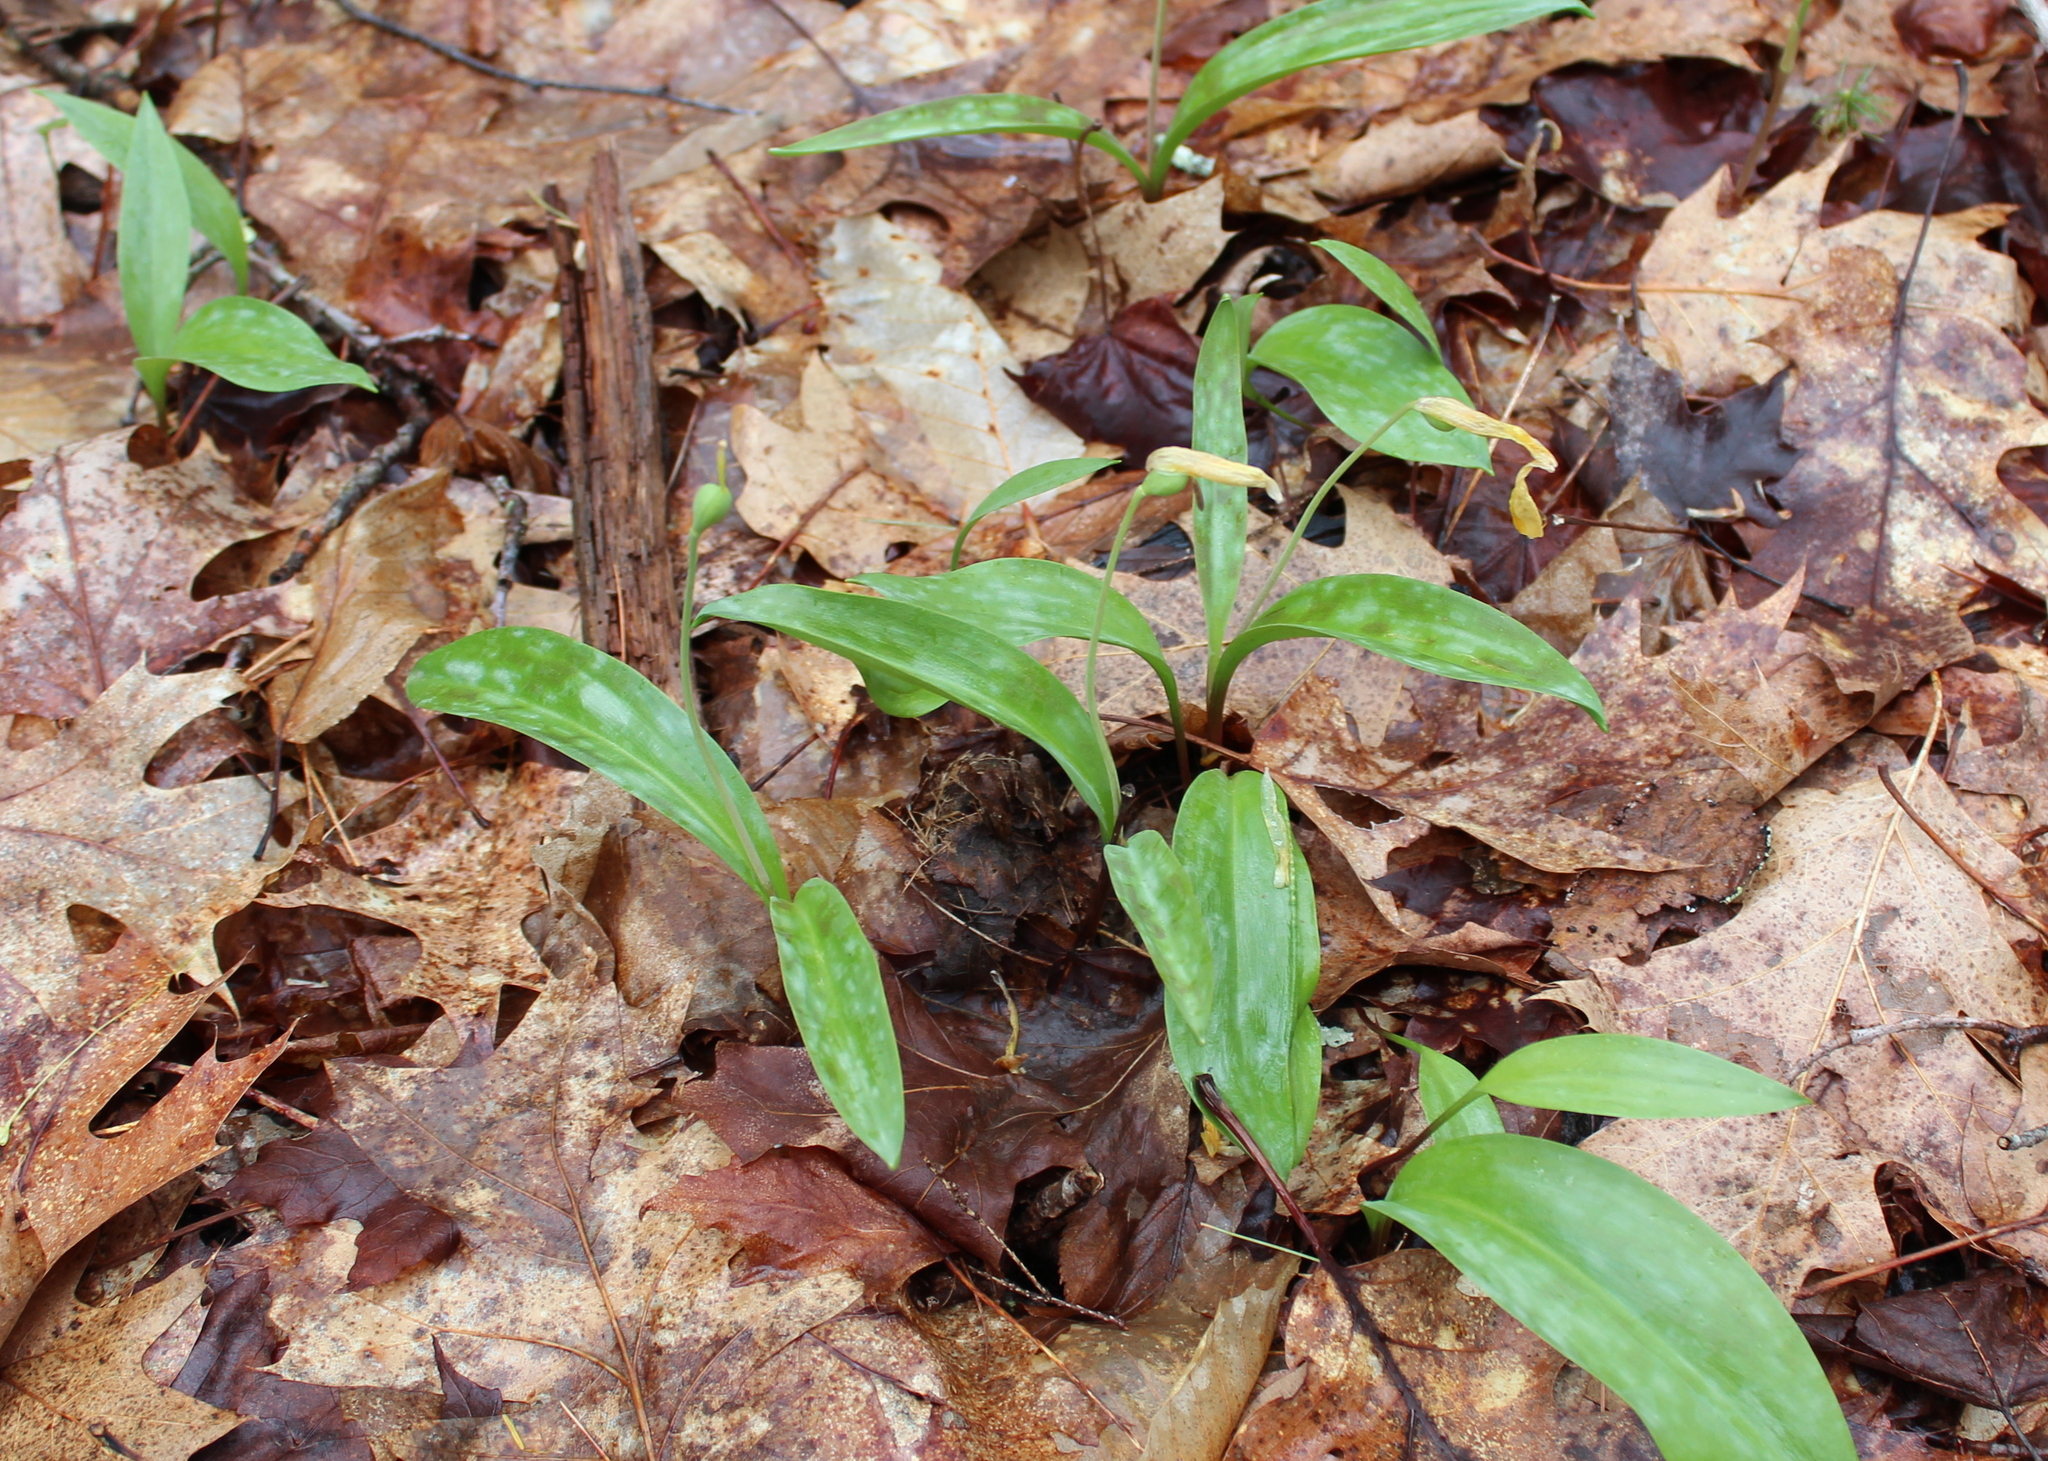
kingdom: Plantae
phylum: Tracheophyta
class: Liliopsida
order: Liliales
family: Liliaceae
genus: Erythronium
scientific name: Erythronium americanum
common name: Yellow adder's-tongue
